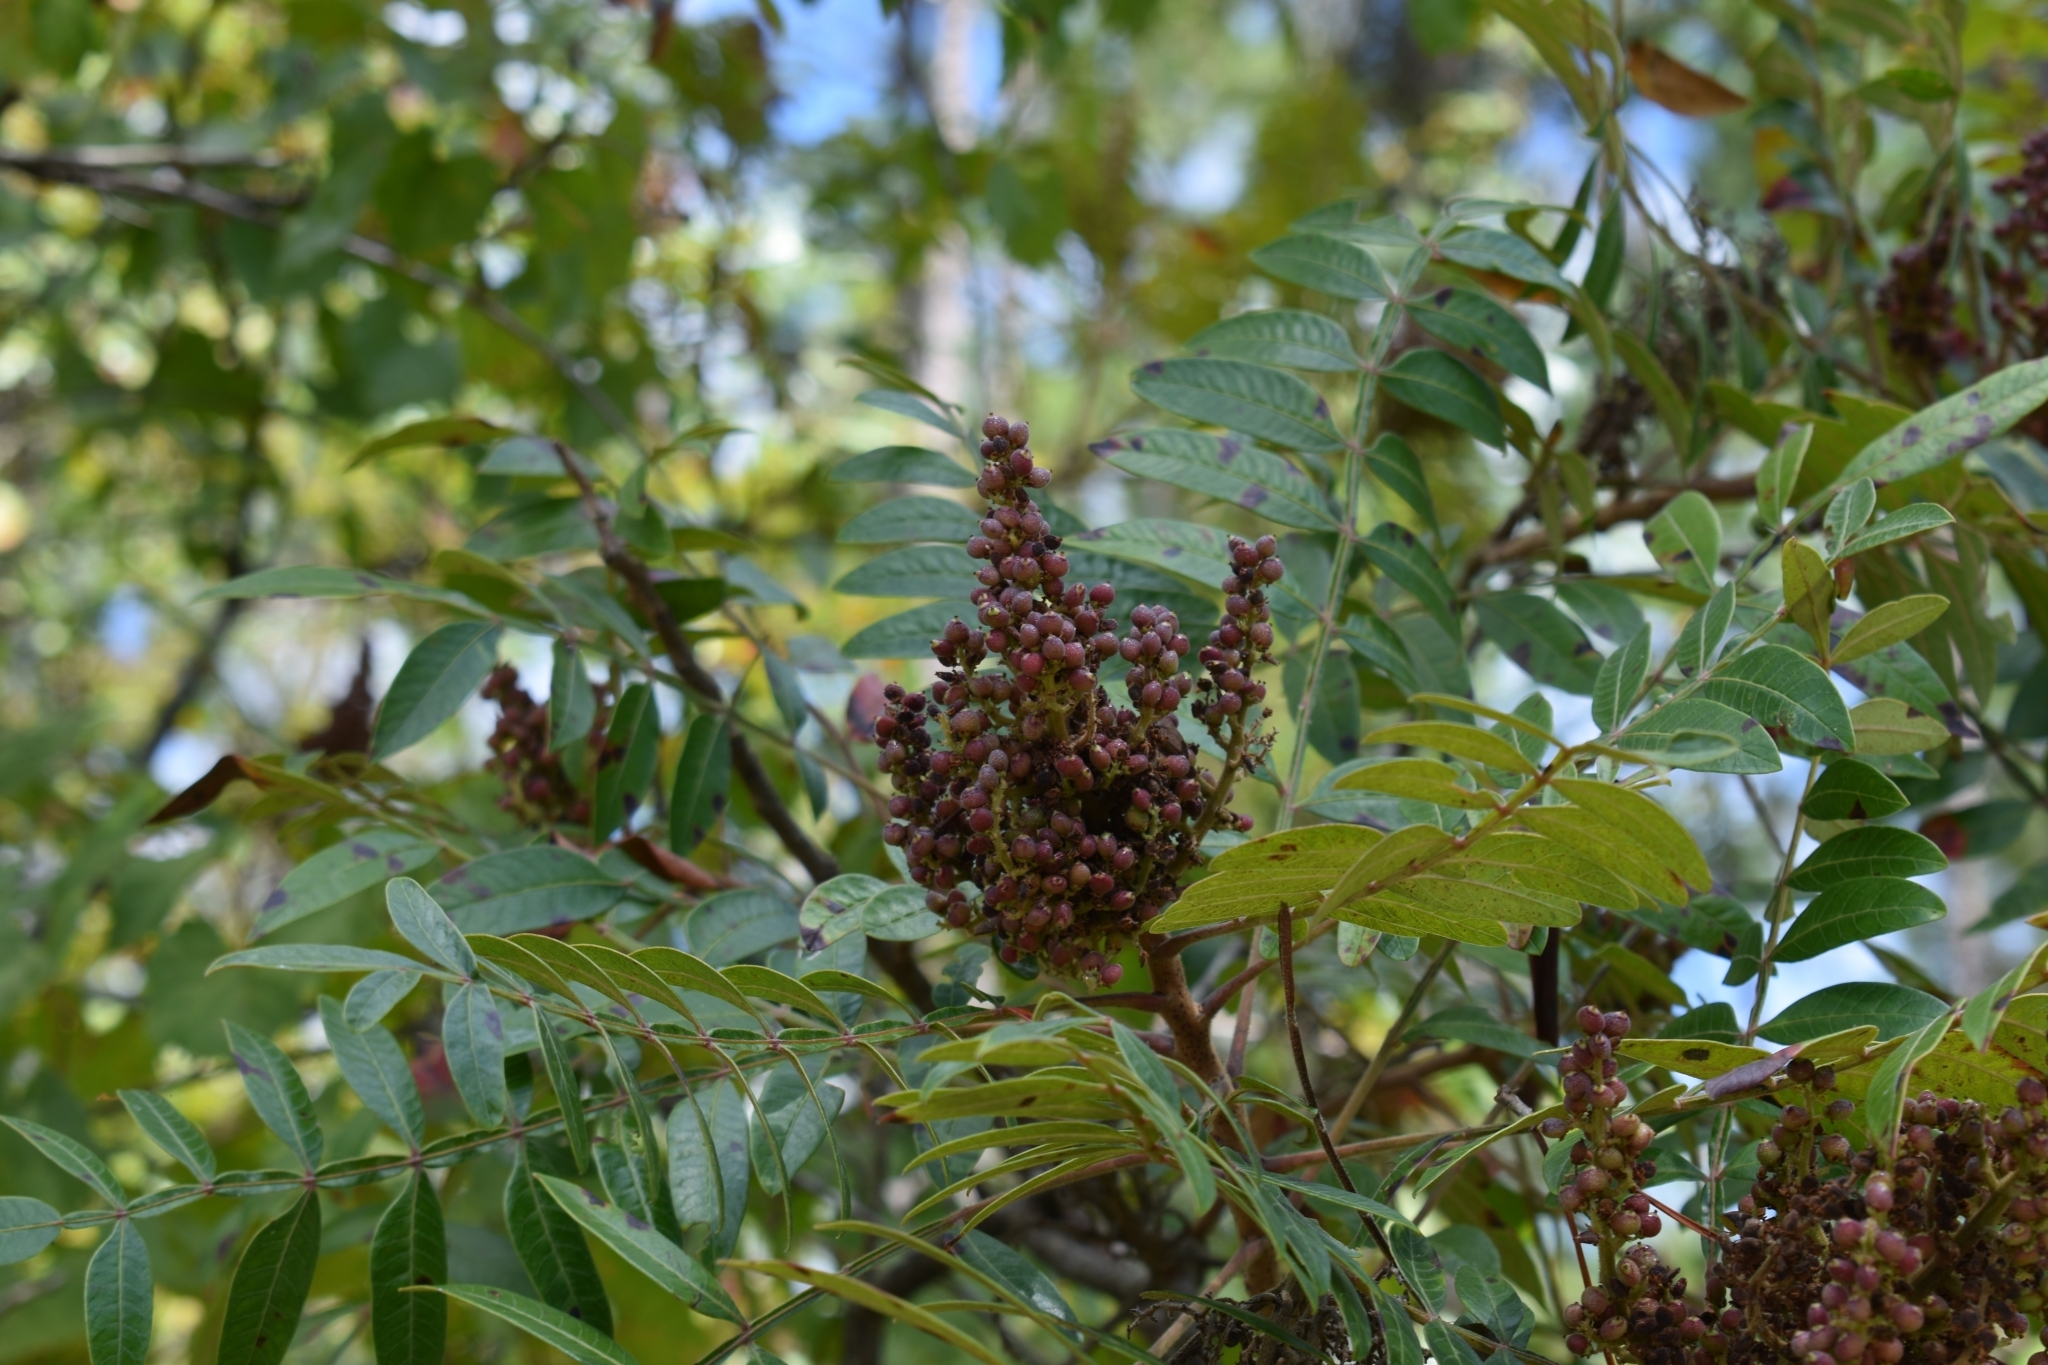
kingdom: Plantae
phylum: Tracheophyta
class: Magnoliopsida
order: Sapindales
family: Anacardiaceae
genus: Rhus
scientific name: Rhus copallina
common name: Shining sumac
